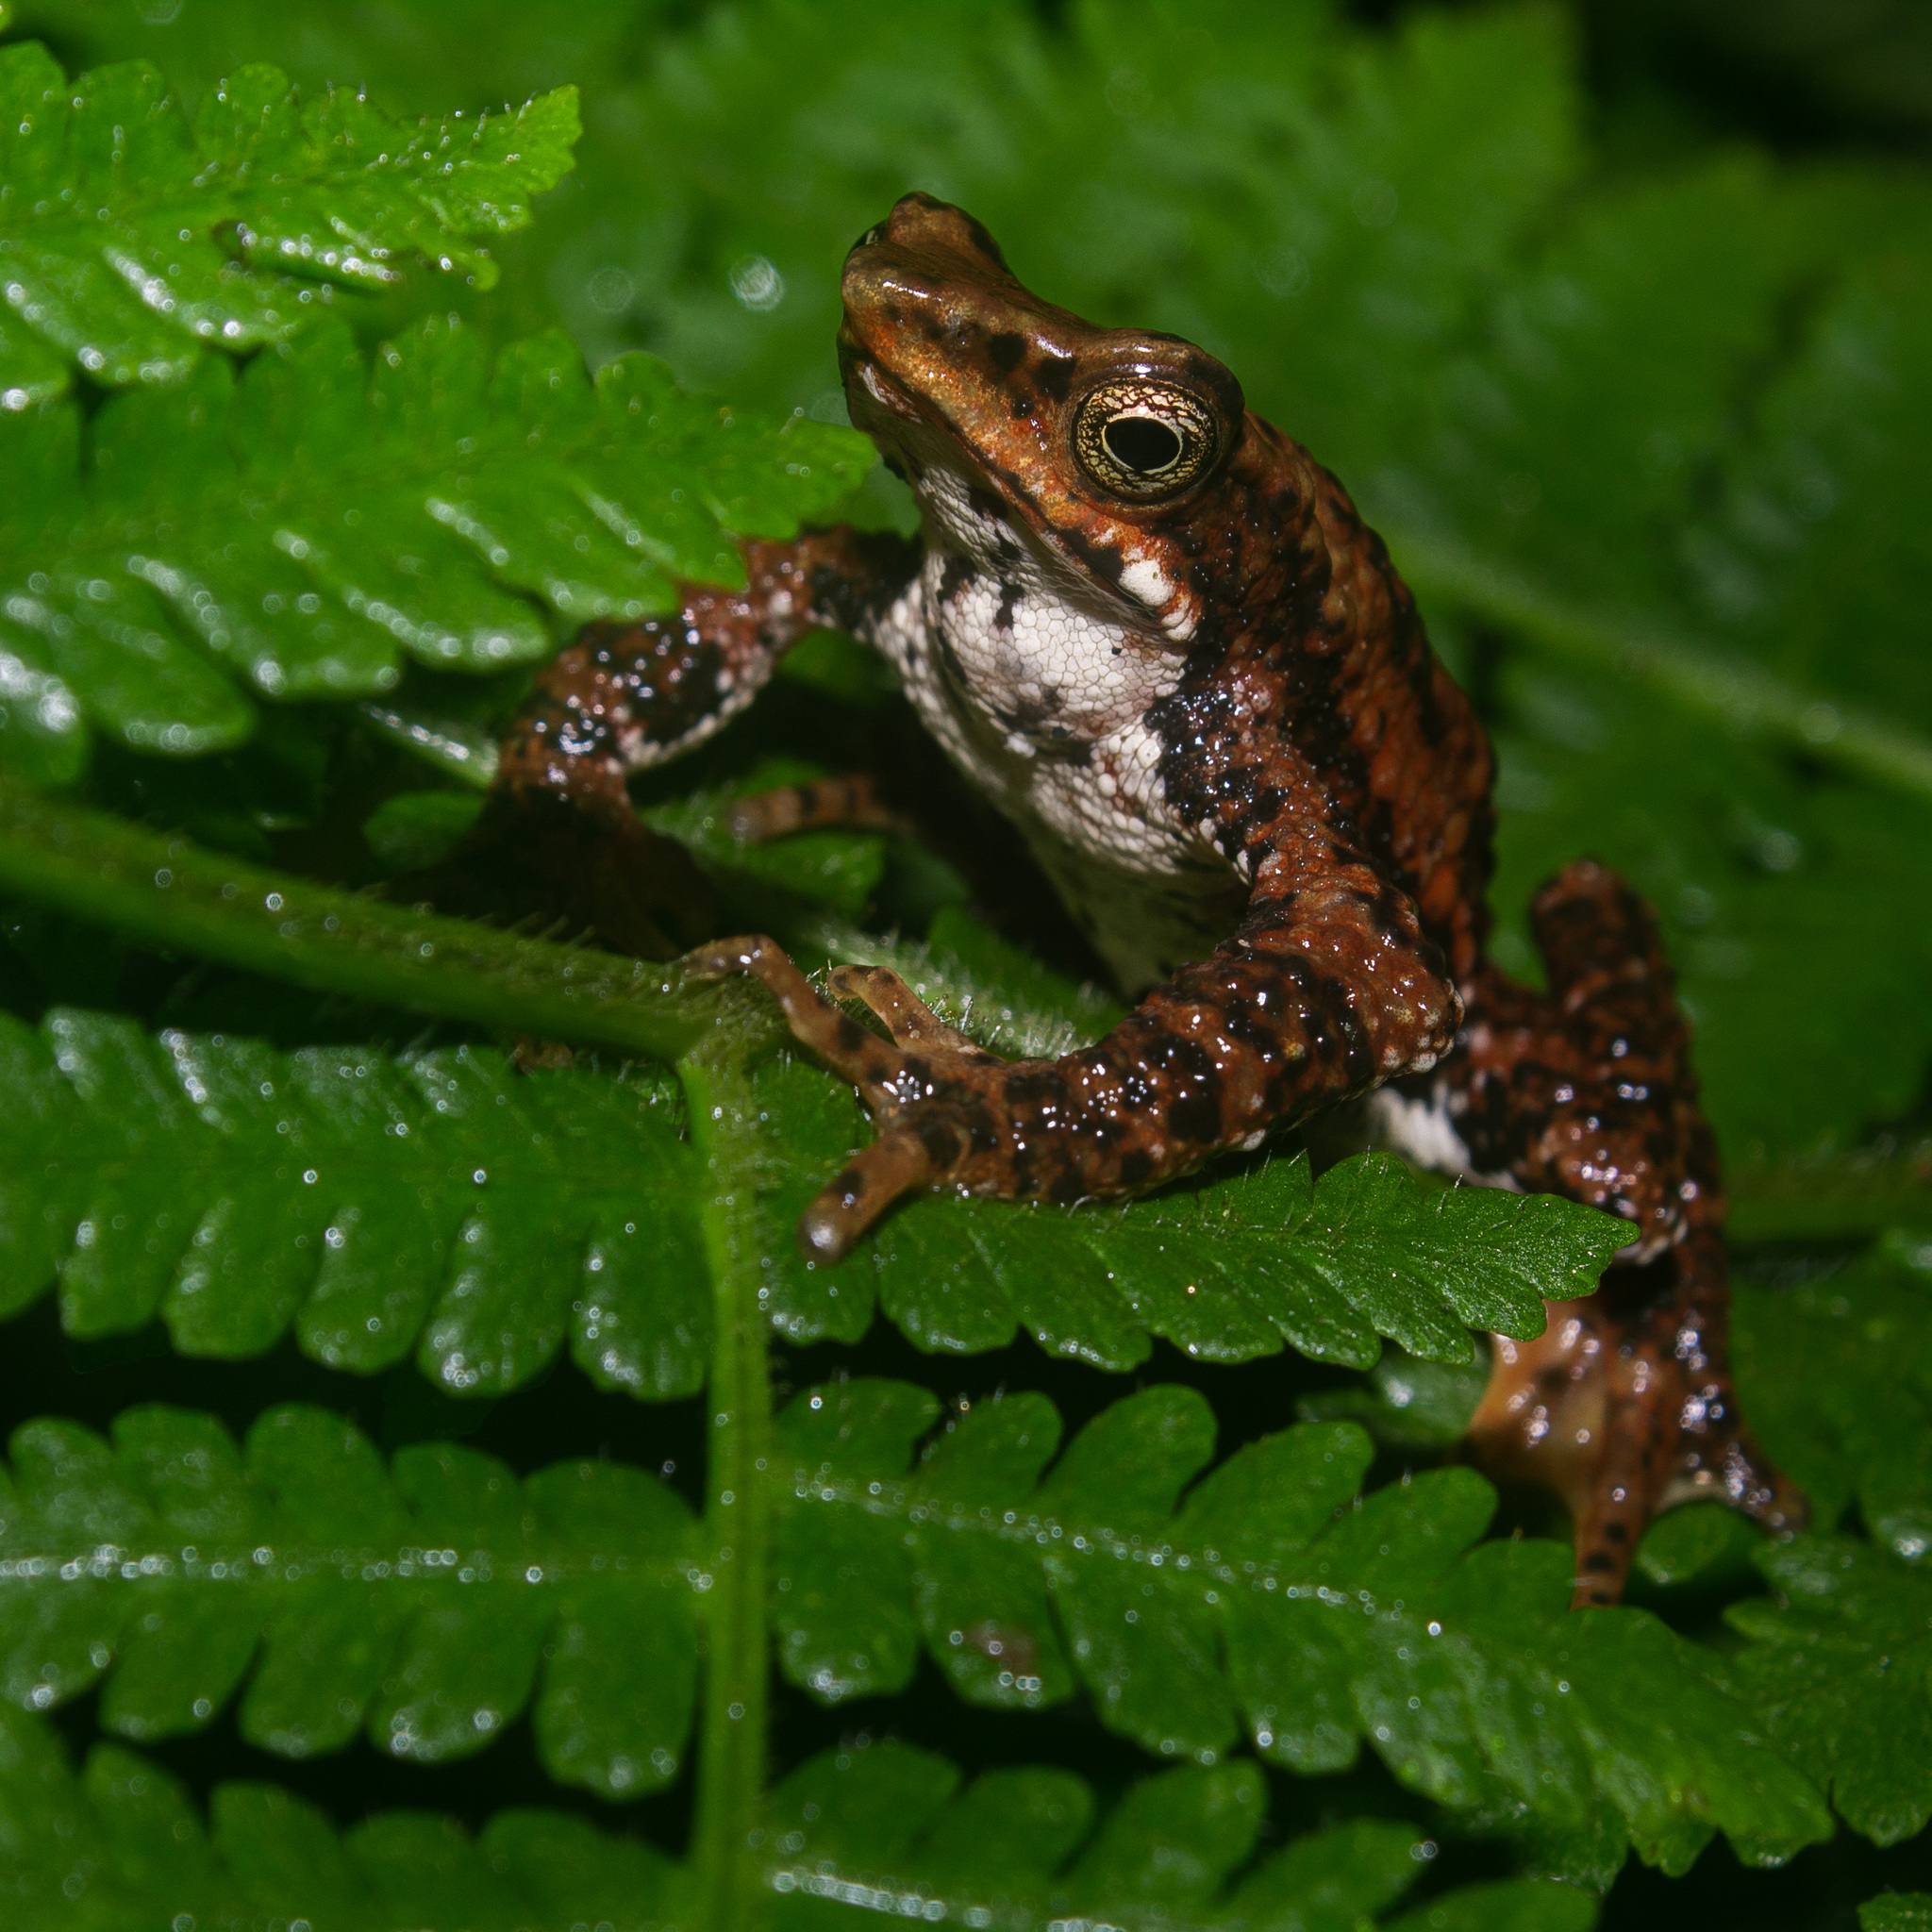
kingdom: Animalia
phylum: Chordata
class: Amphibia
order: Anura
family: Bufonidae
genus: Atelopus
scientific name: Atelopus laetissimus
